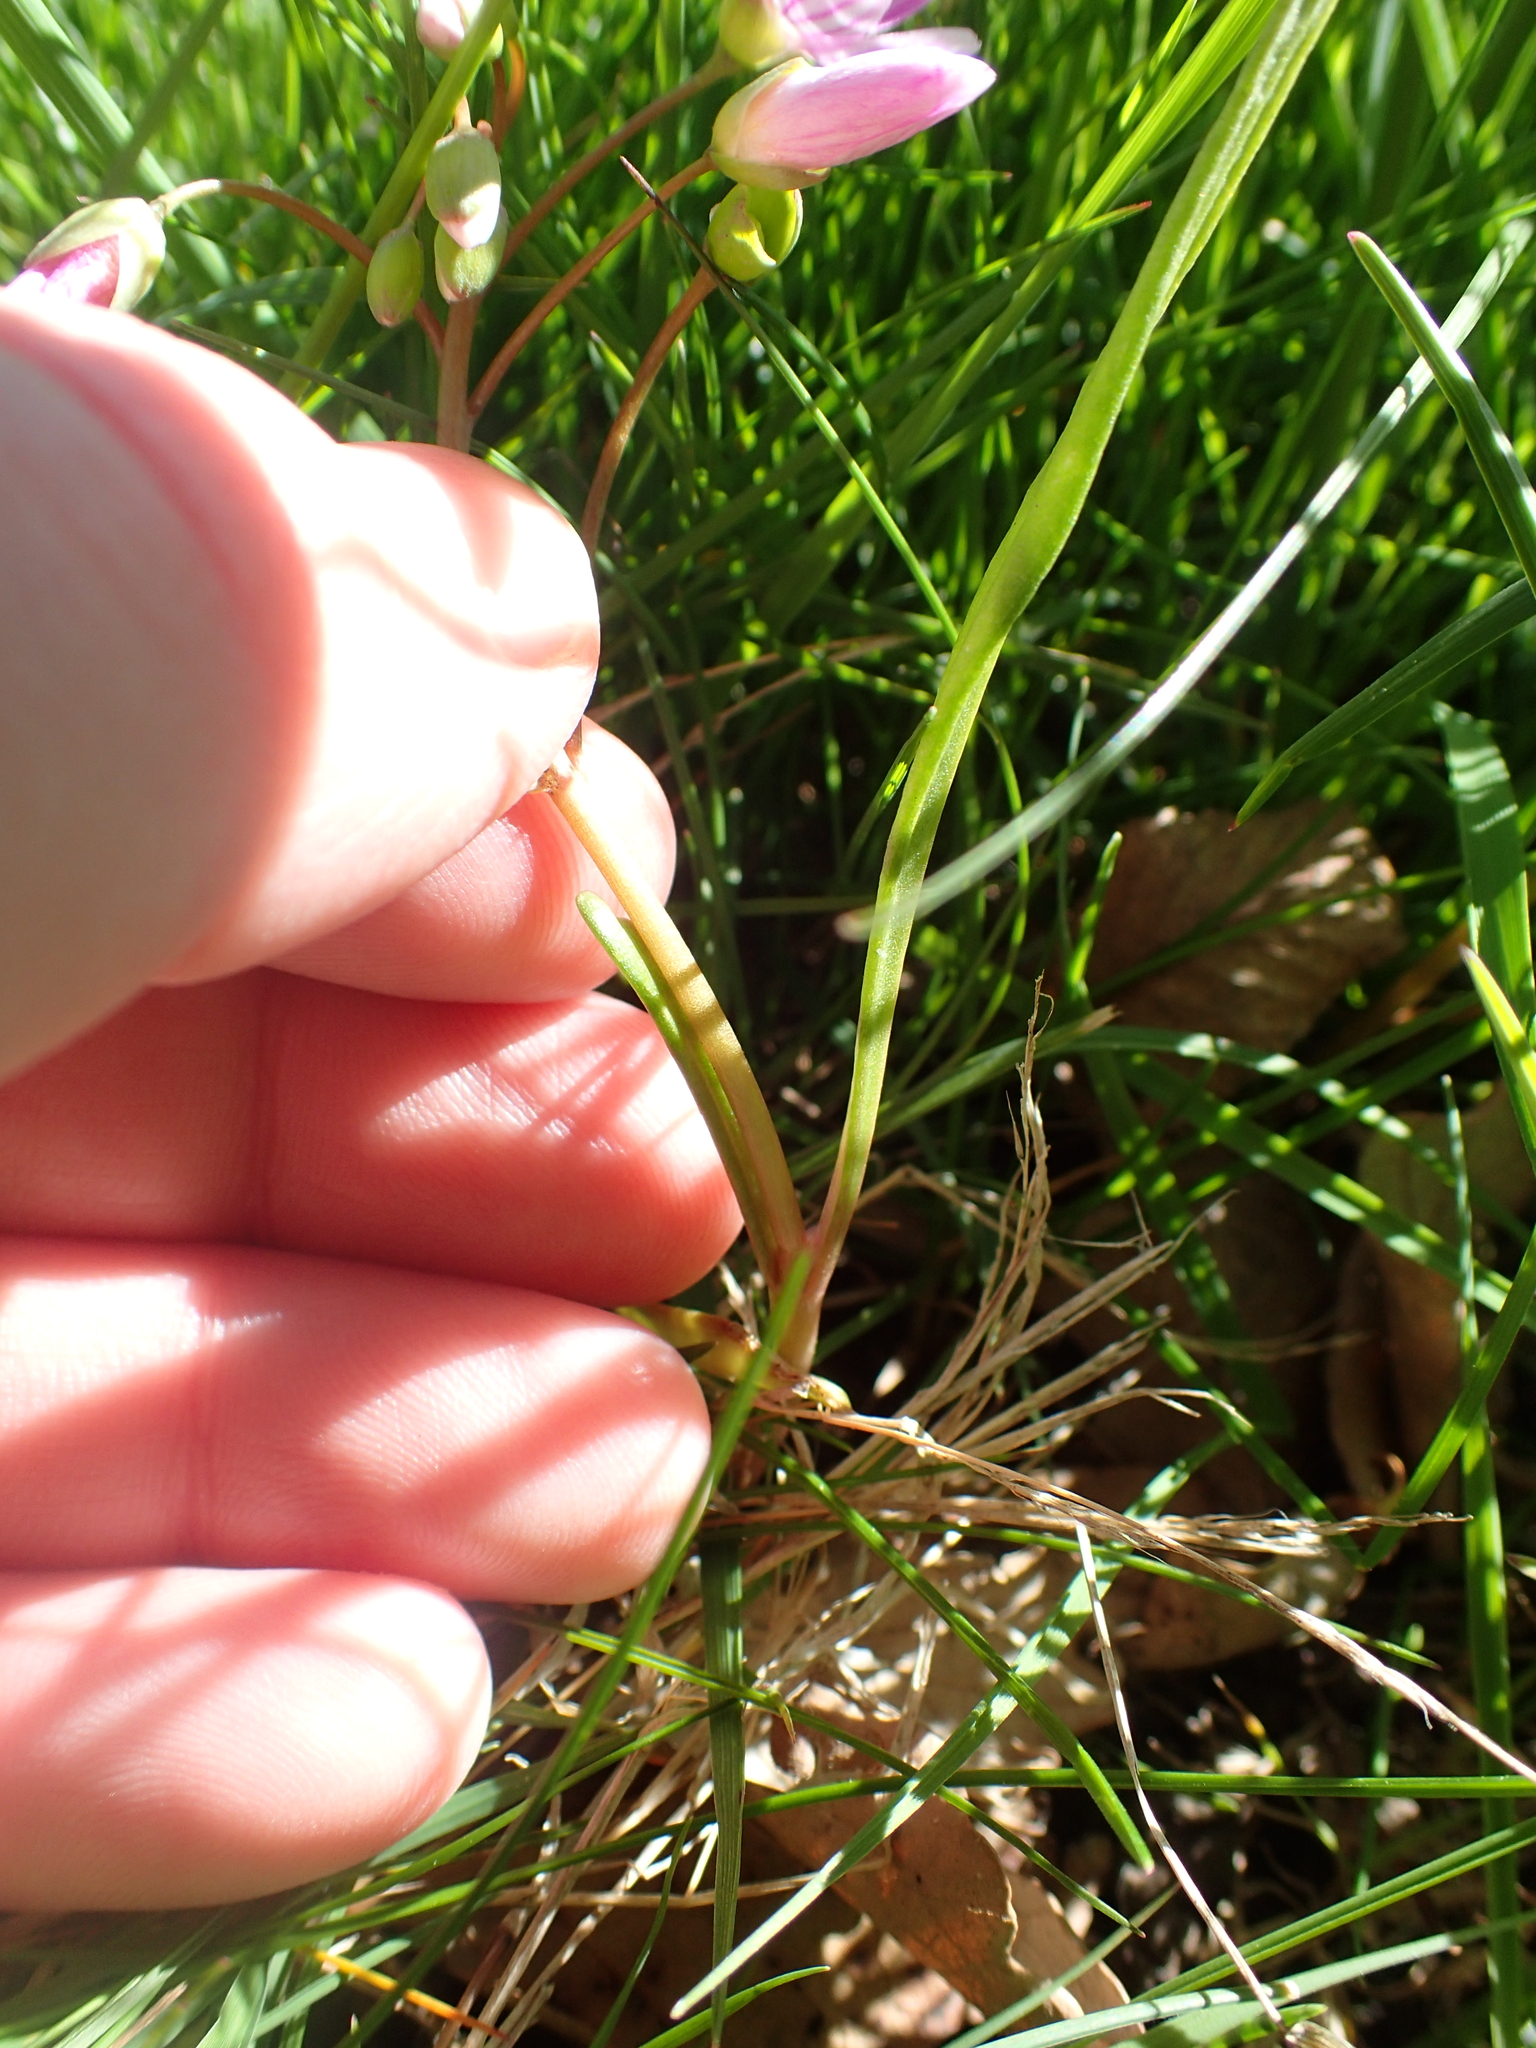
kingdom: Plantae
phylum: Tracheophyta
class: Magnoliopsida
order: Caryophyllales
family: Montiaceae
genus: Claytonia
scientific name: Claytonia virginica
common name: Virginia springbeauty
